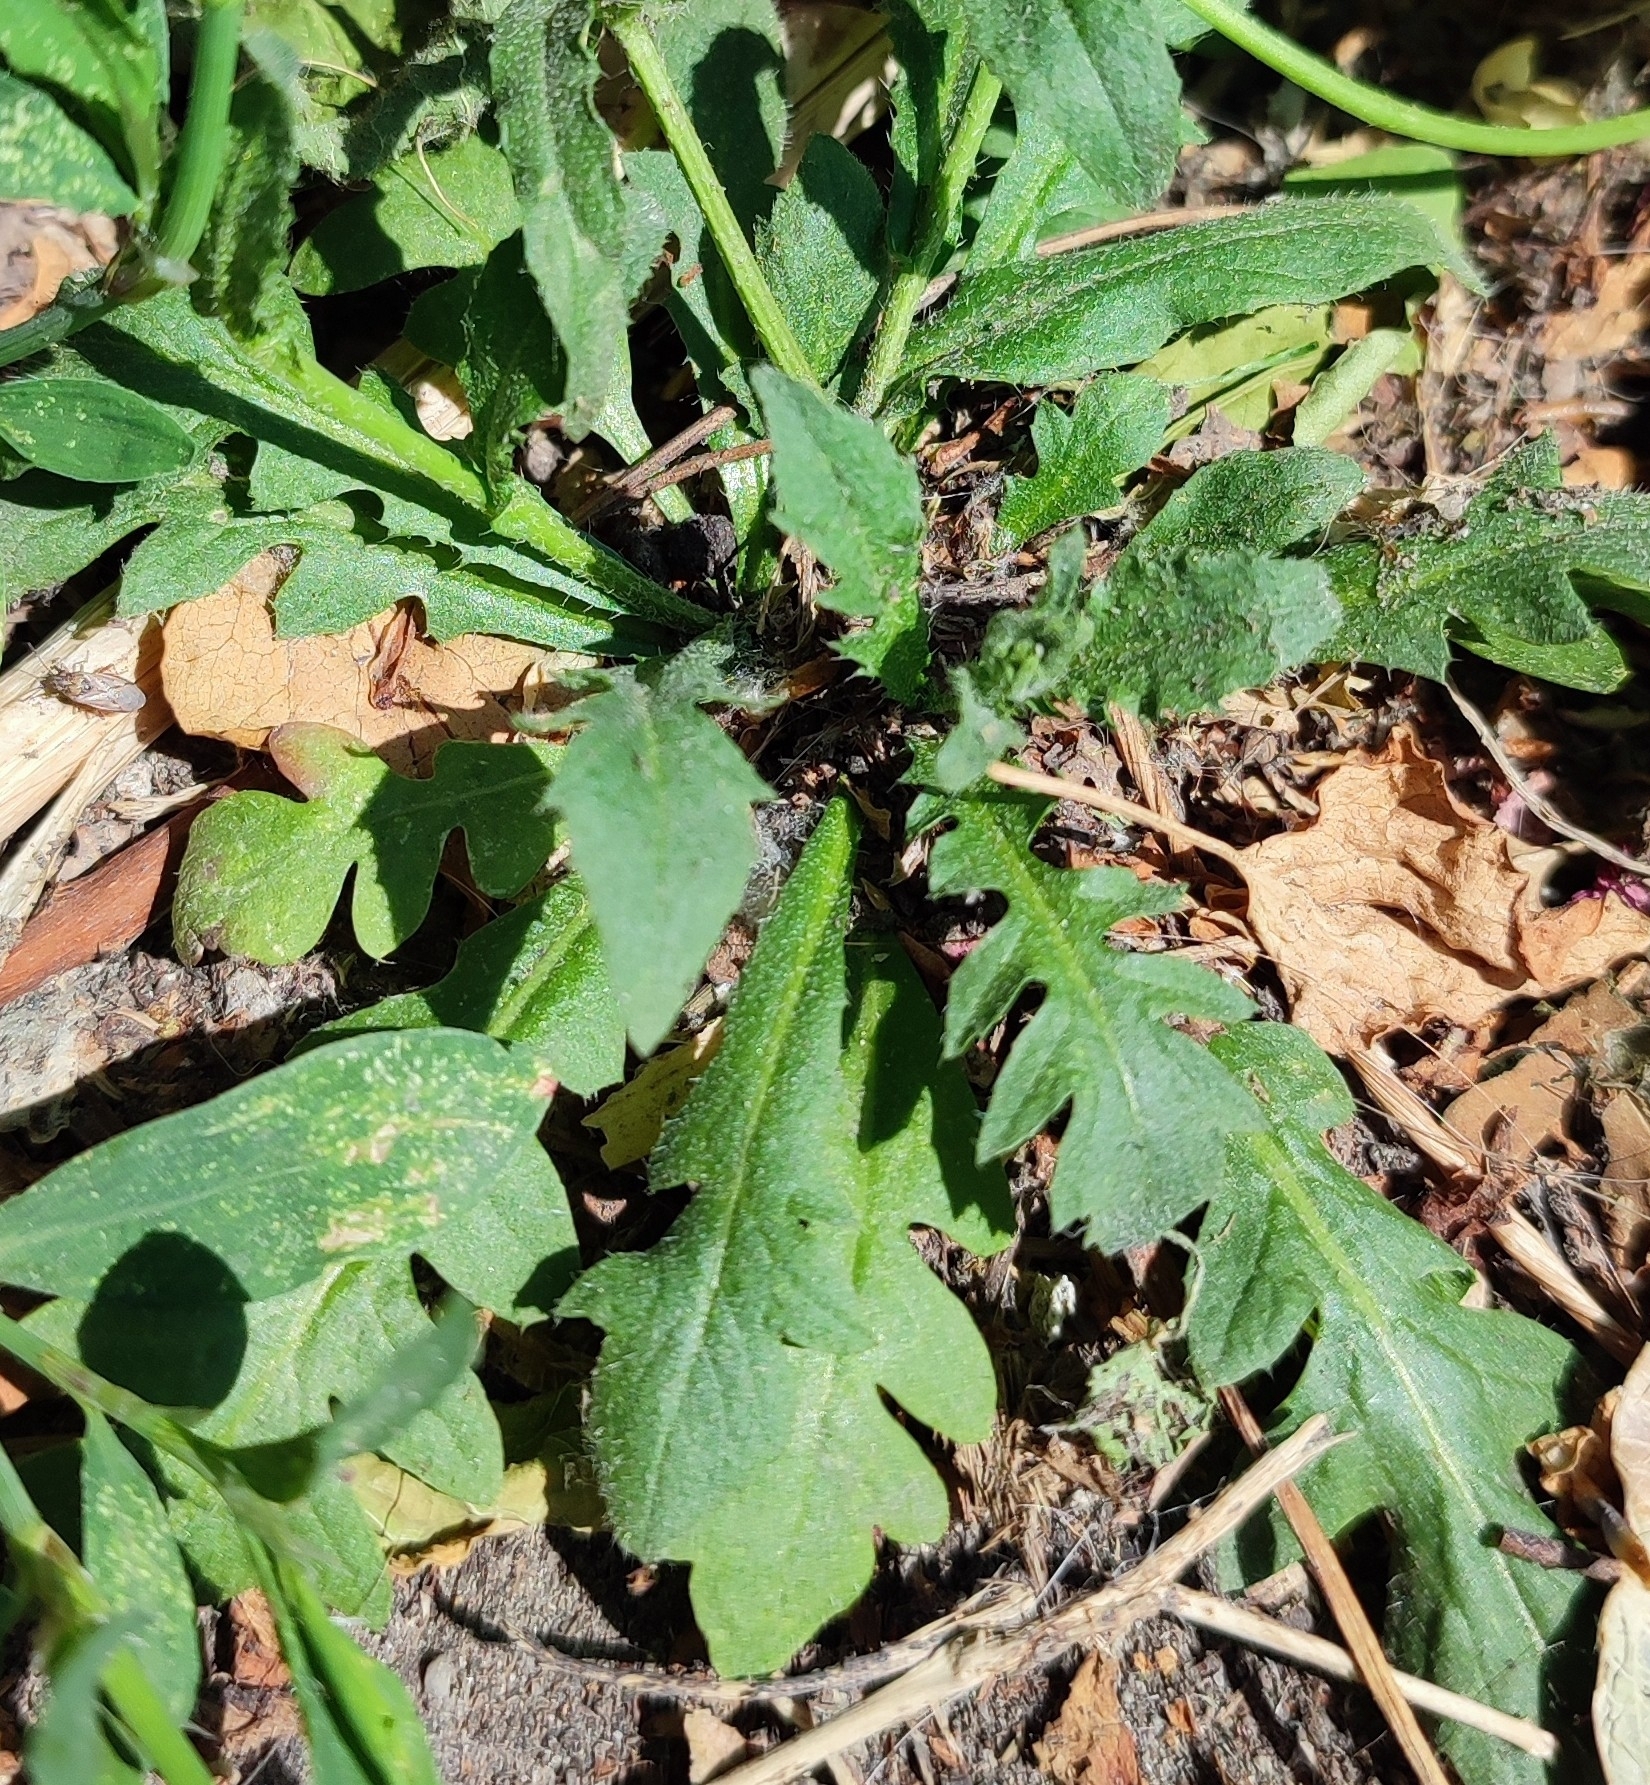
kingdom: Plantae
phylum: Tracheophyta
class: Magnoliopsida
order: Brassicales
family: Brassicaceae
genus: Capsella
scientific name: Capsella bursa-pastoris
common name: Shepherd's purse
